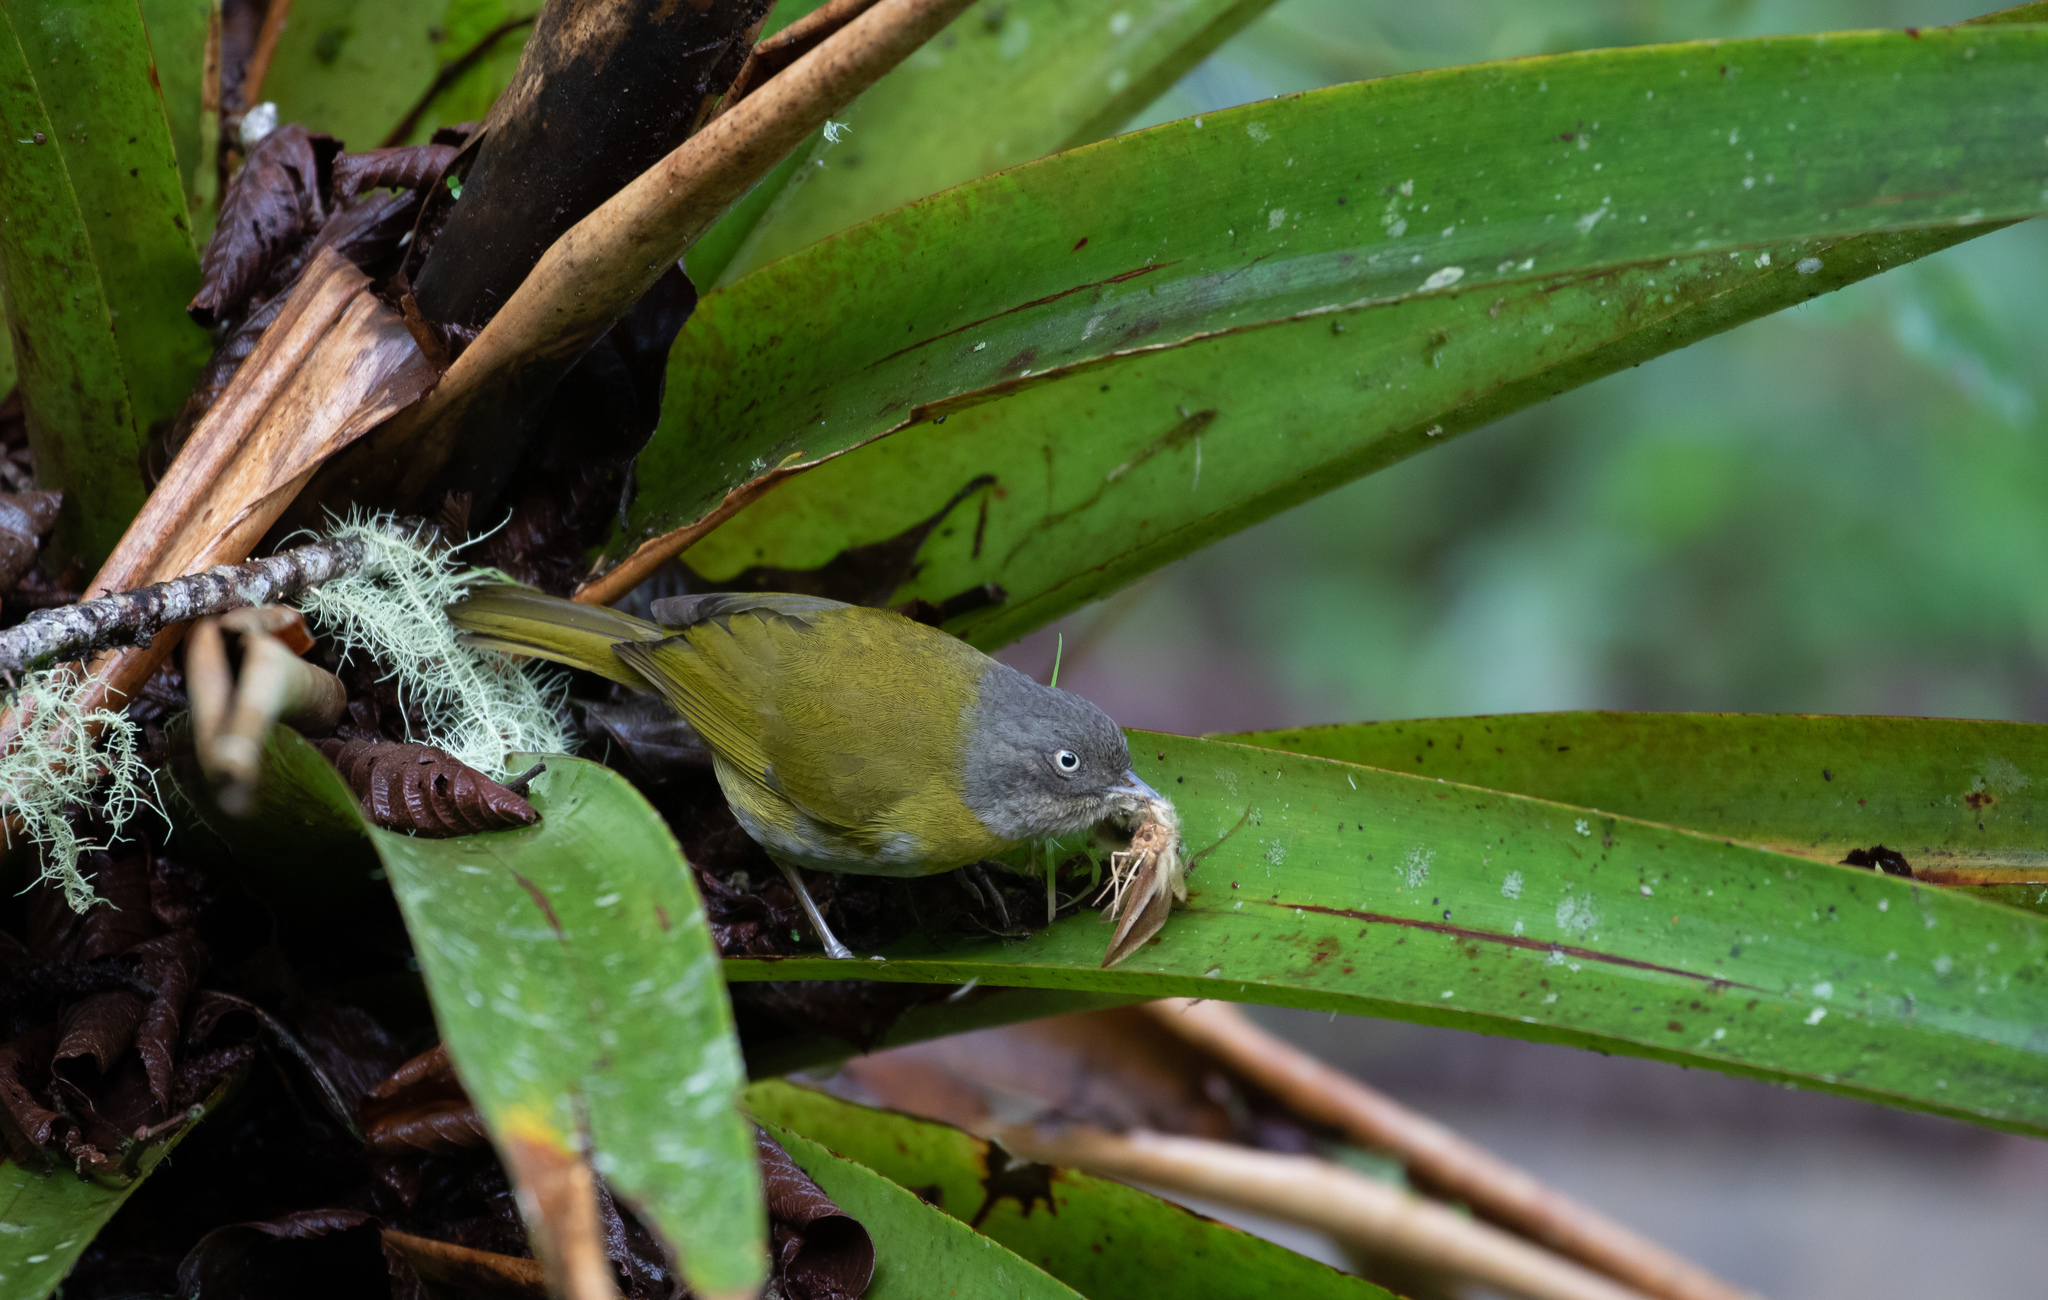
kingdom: Animalia
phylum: Chordata
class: Aves
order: Passeriformes
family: Passerellidae
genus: Chlorospingus
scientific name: Chlorospingus flavopectus
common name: Common chlorospingus
